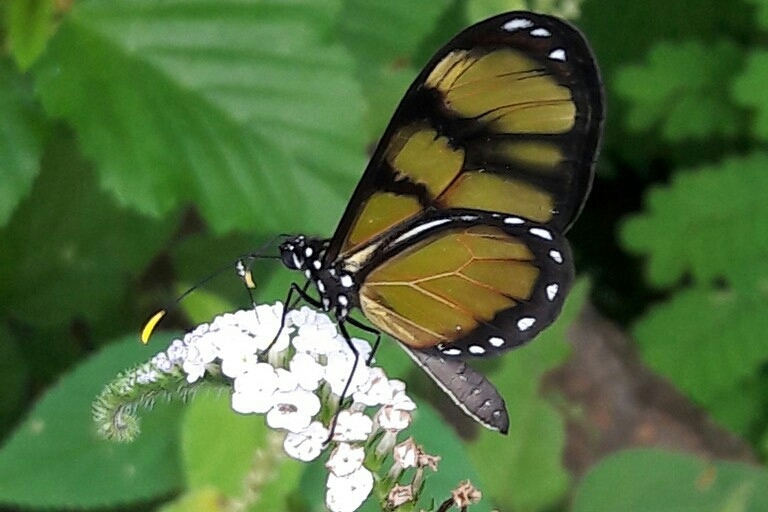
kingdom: Animalia
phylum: Arthropoda
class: Insecta
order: Lepidoptera
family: Nymphalidae
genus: Dircenna
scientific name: Dircenna dero
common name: Dero clearwing
